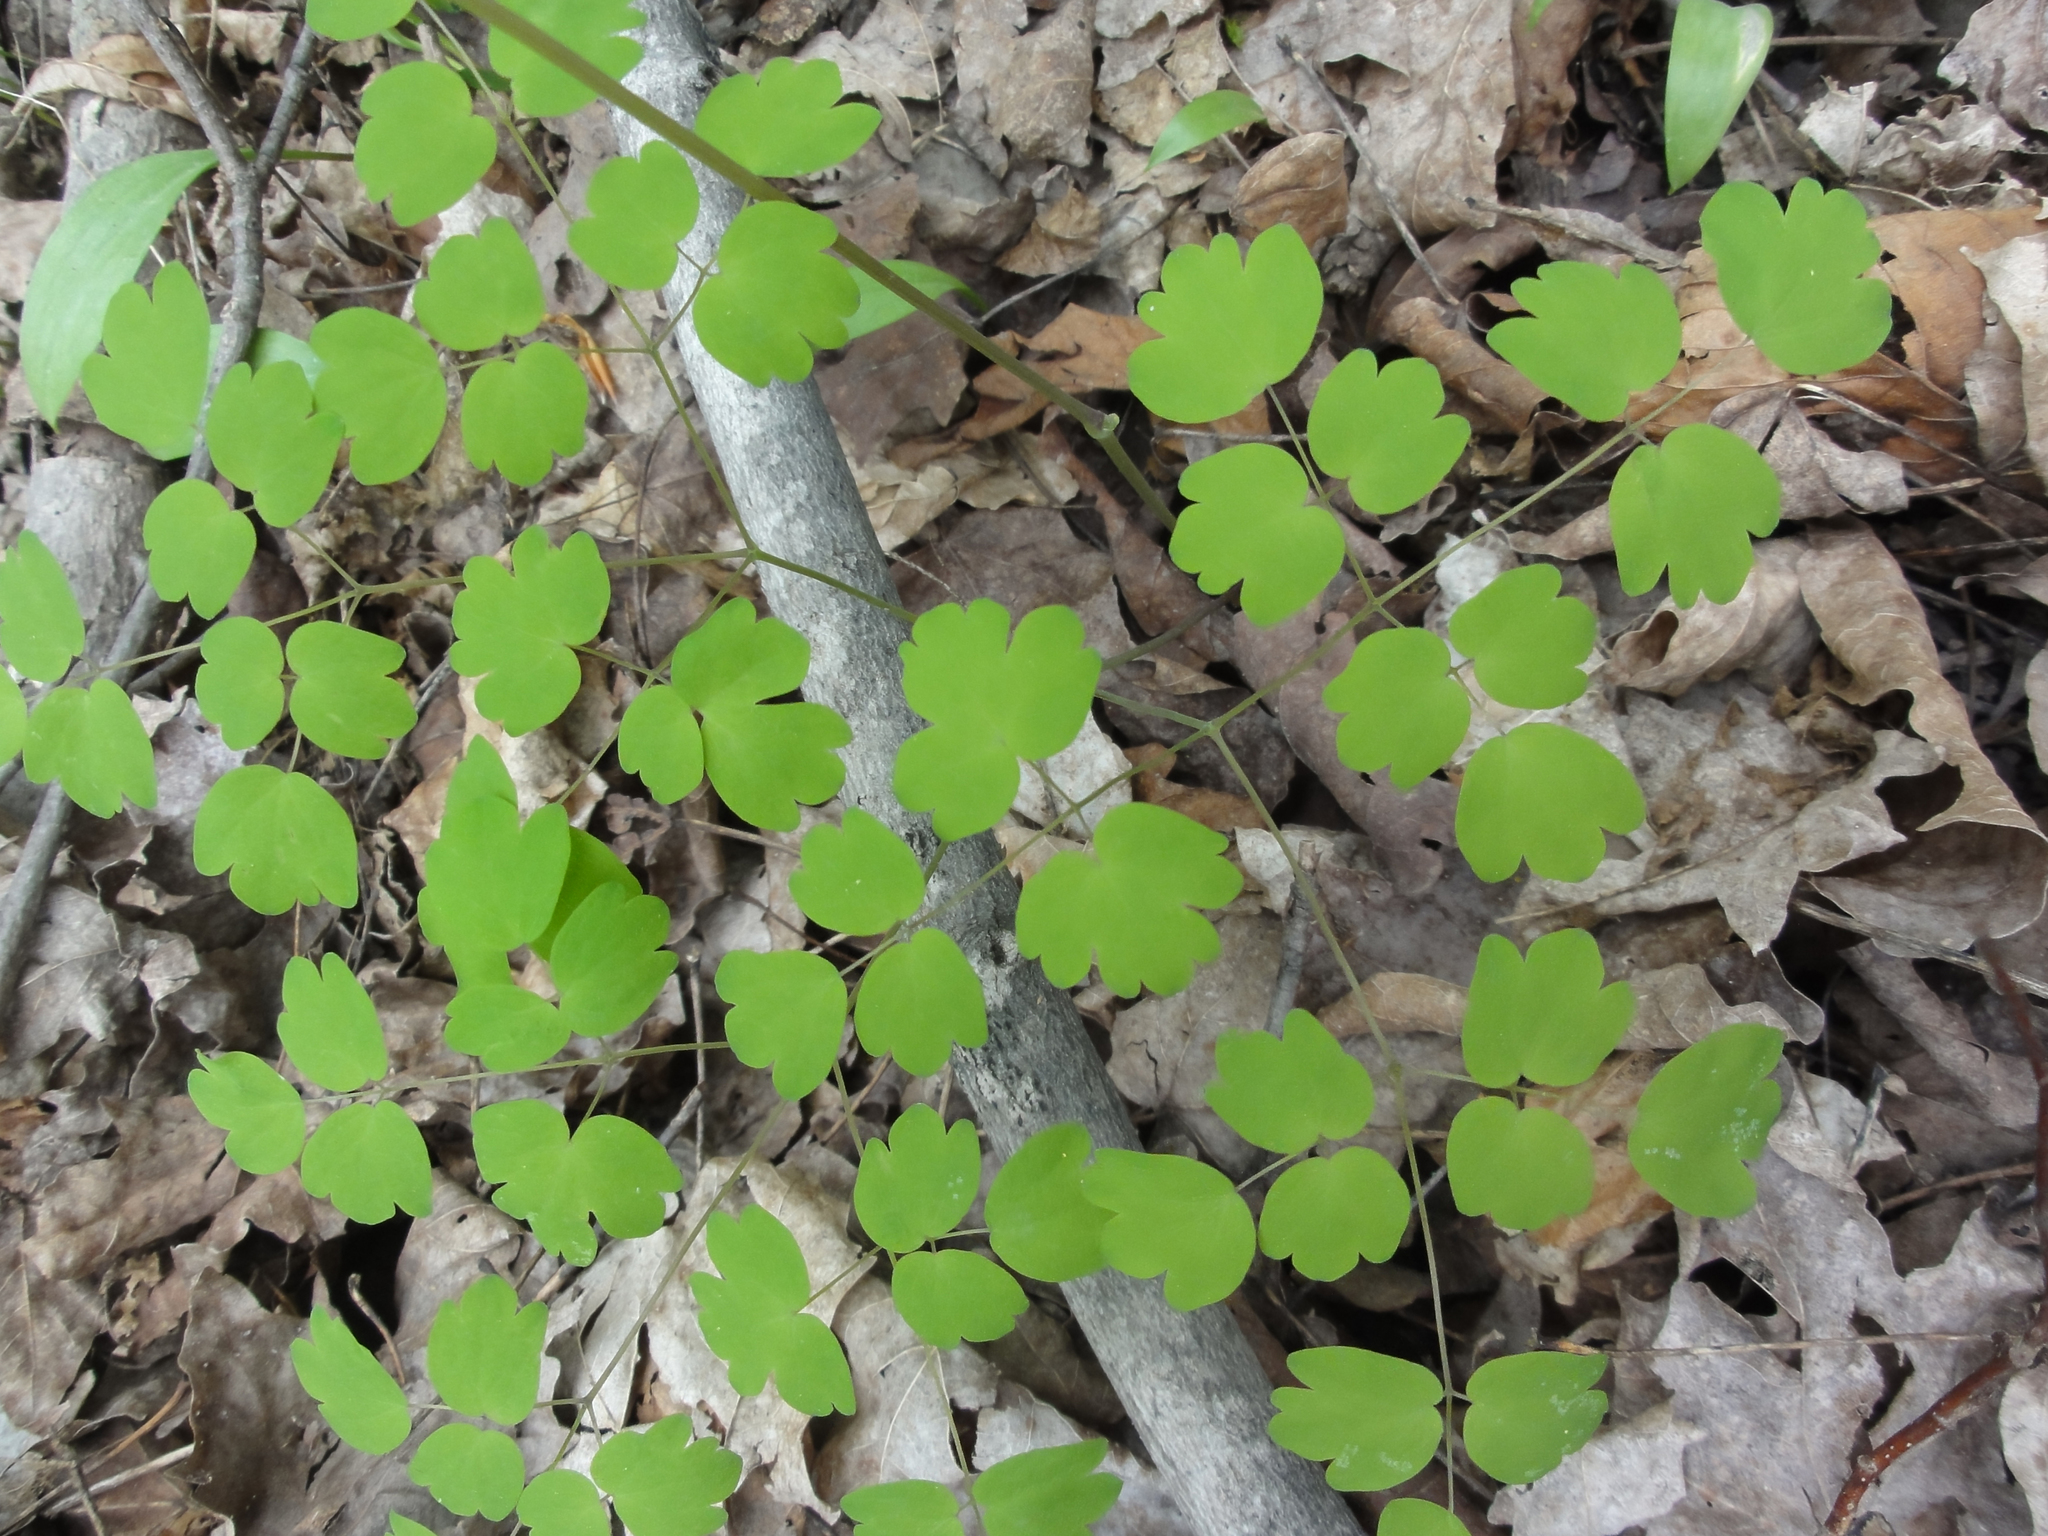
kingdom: Plantae
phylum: Tracheophyta
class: Magnoliopsida
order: Ranunculales
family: Ranunculaceae
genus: Thalictrum
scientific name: Thalictrum dioicum
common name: Early meadow-rue
